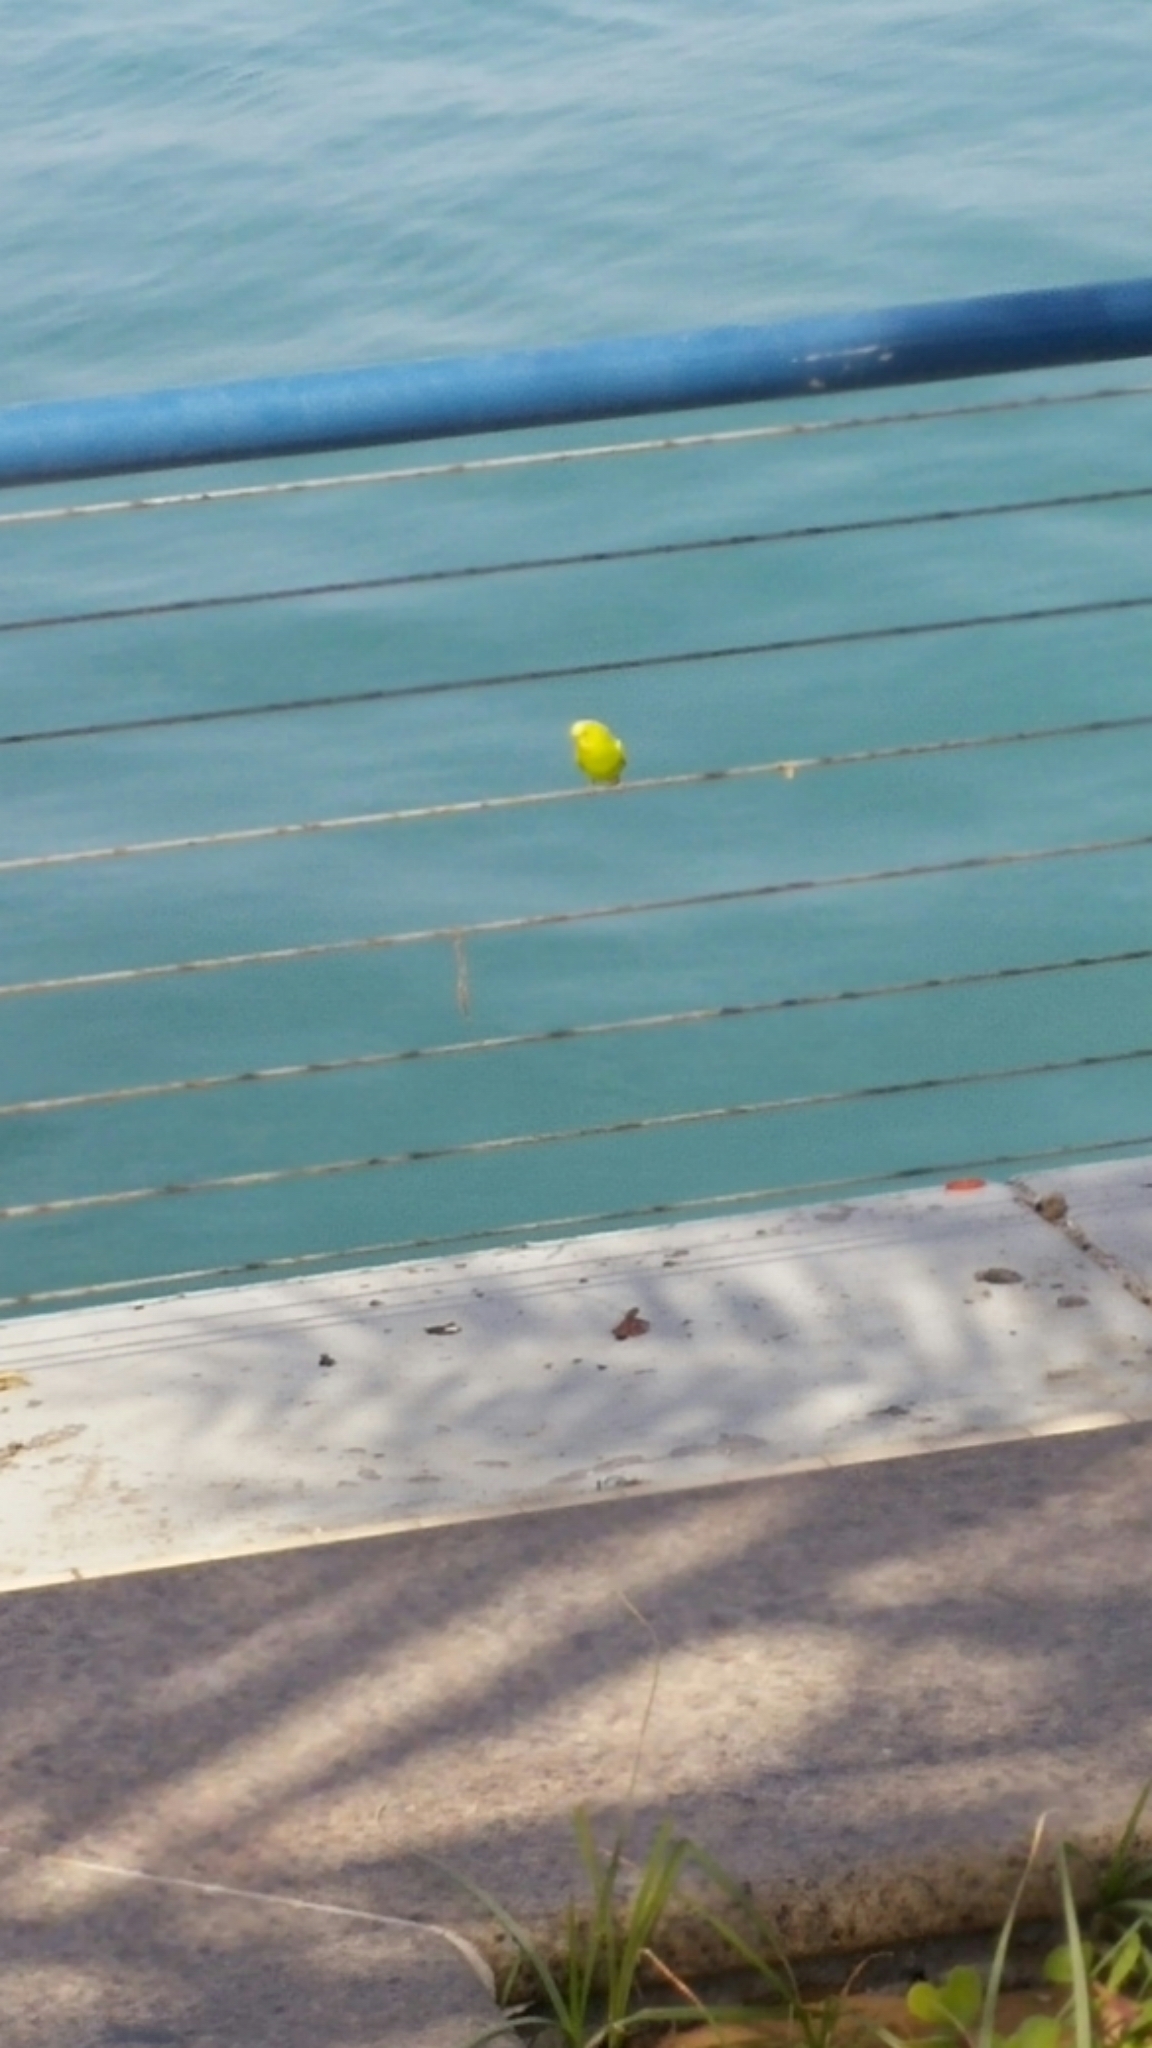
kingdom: Animalia
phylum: Chordata
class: Aves
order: Psittaciformes
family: Psittacidae
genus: Melopsittacus
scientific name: Melopsittacus undulatus
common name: Budgerigar
